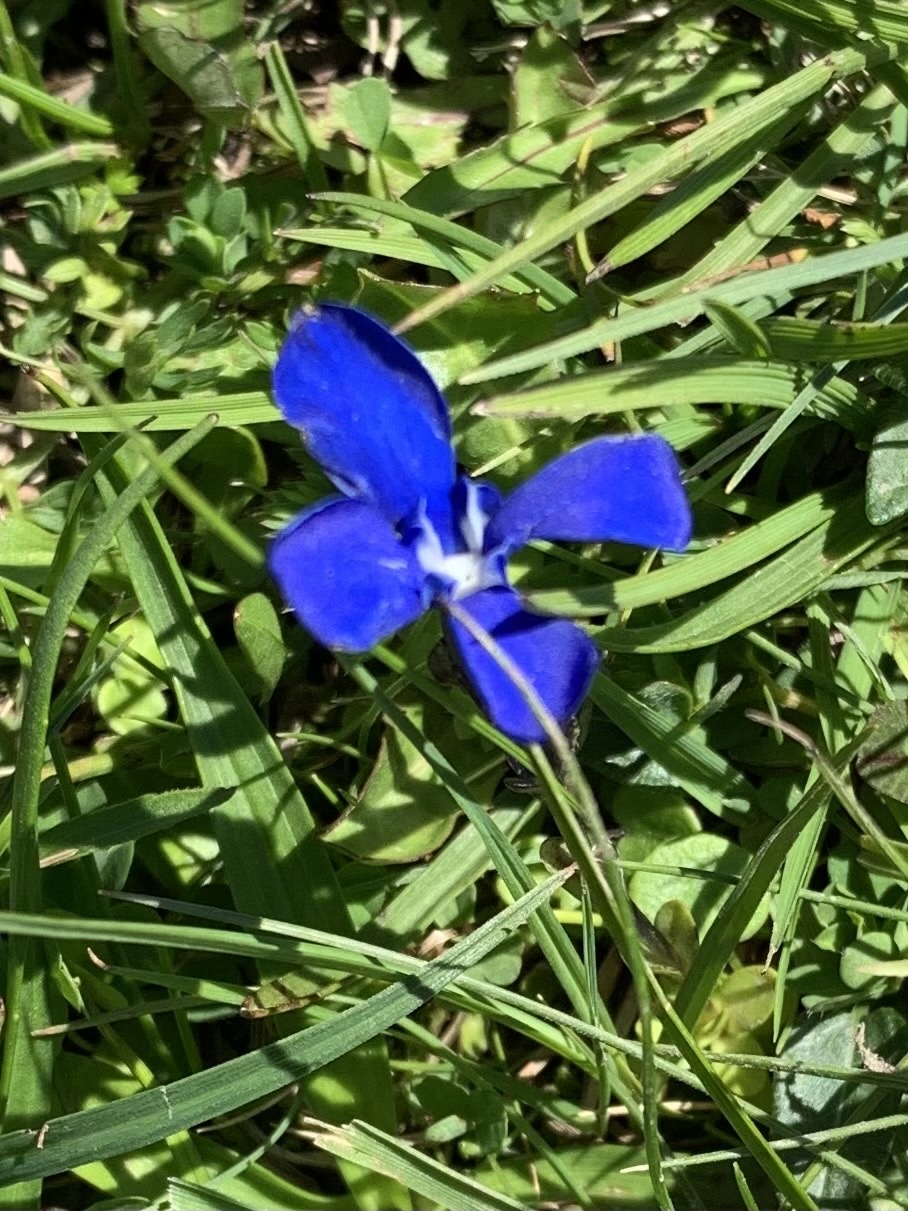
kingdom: Plantae
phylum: Tracheophyta
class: Magnoliopsida
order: Gentianales
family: Gentianaceae
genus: Gentiana
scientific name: Gentiana bavarica
